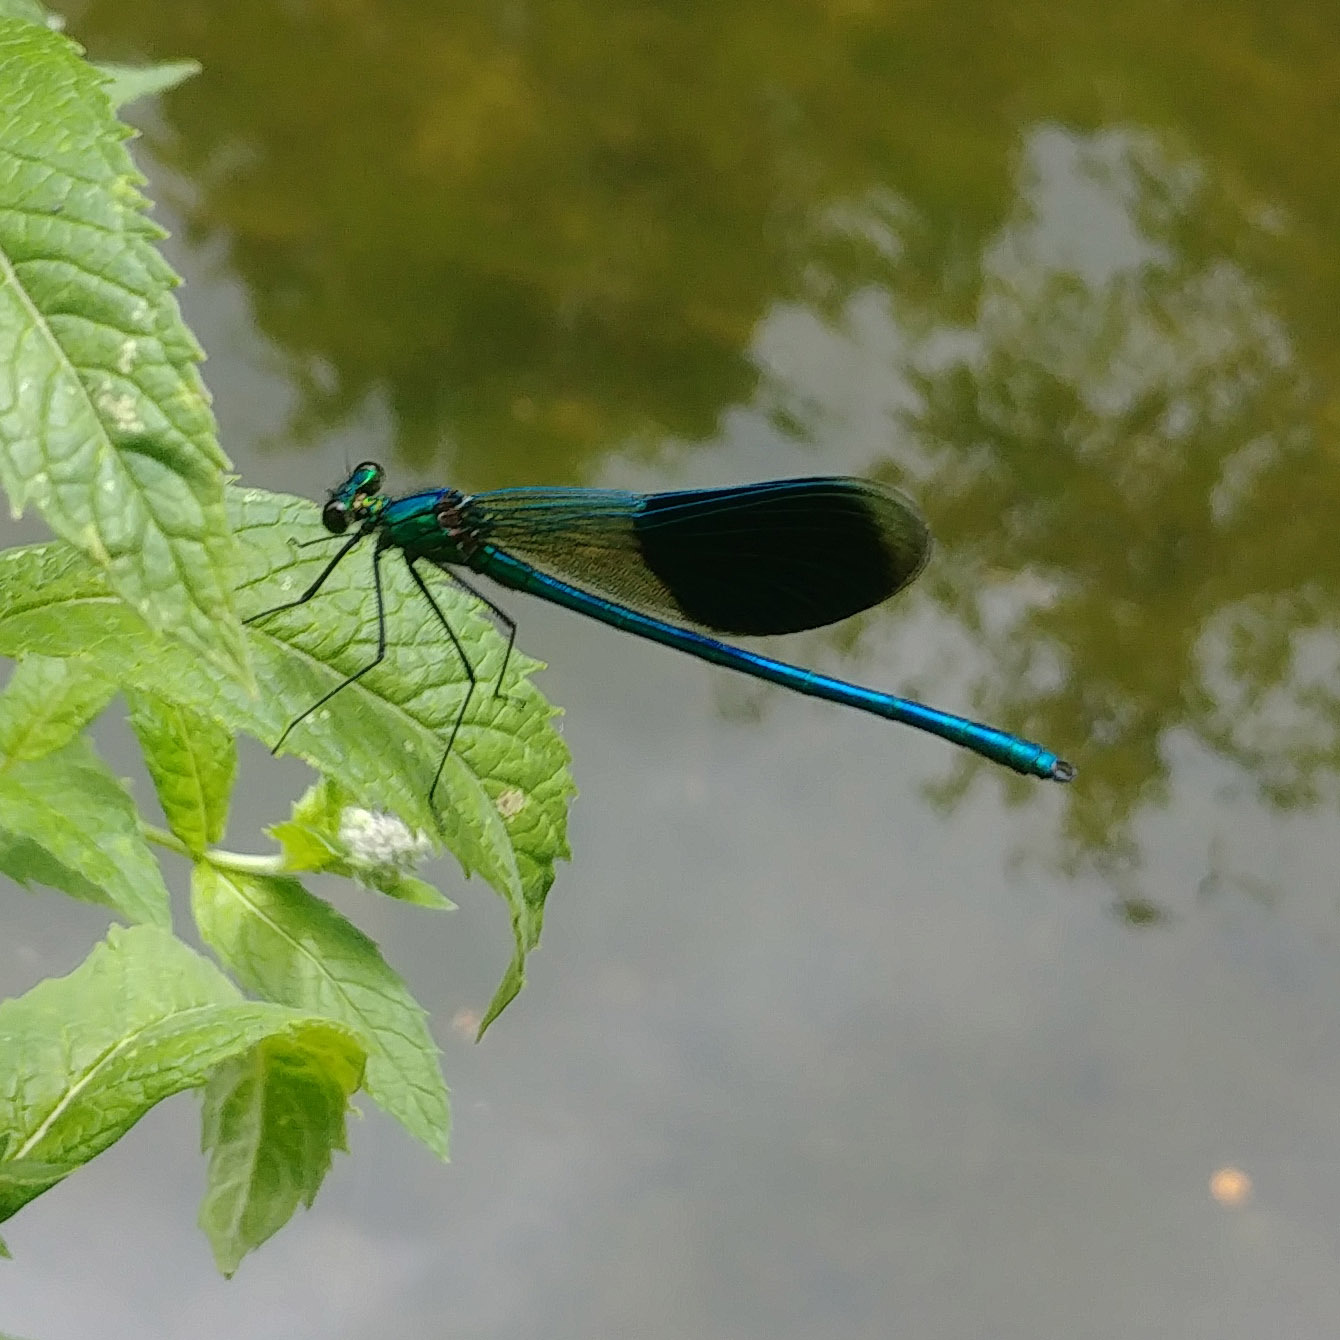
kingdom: Animalia
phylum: Arthropoda
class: Insecta
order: Odonata
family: Calopterygidae
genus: Calopteryx
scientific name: Calopteryx splendens
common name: Banded demoiselle
